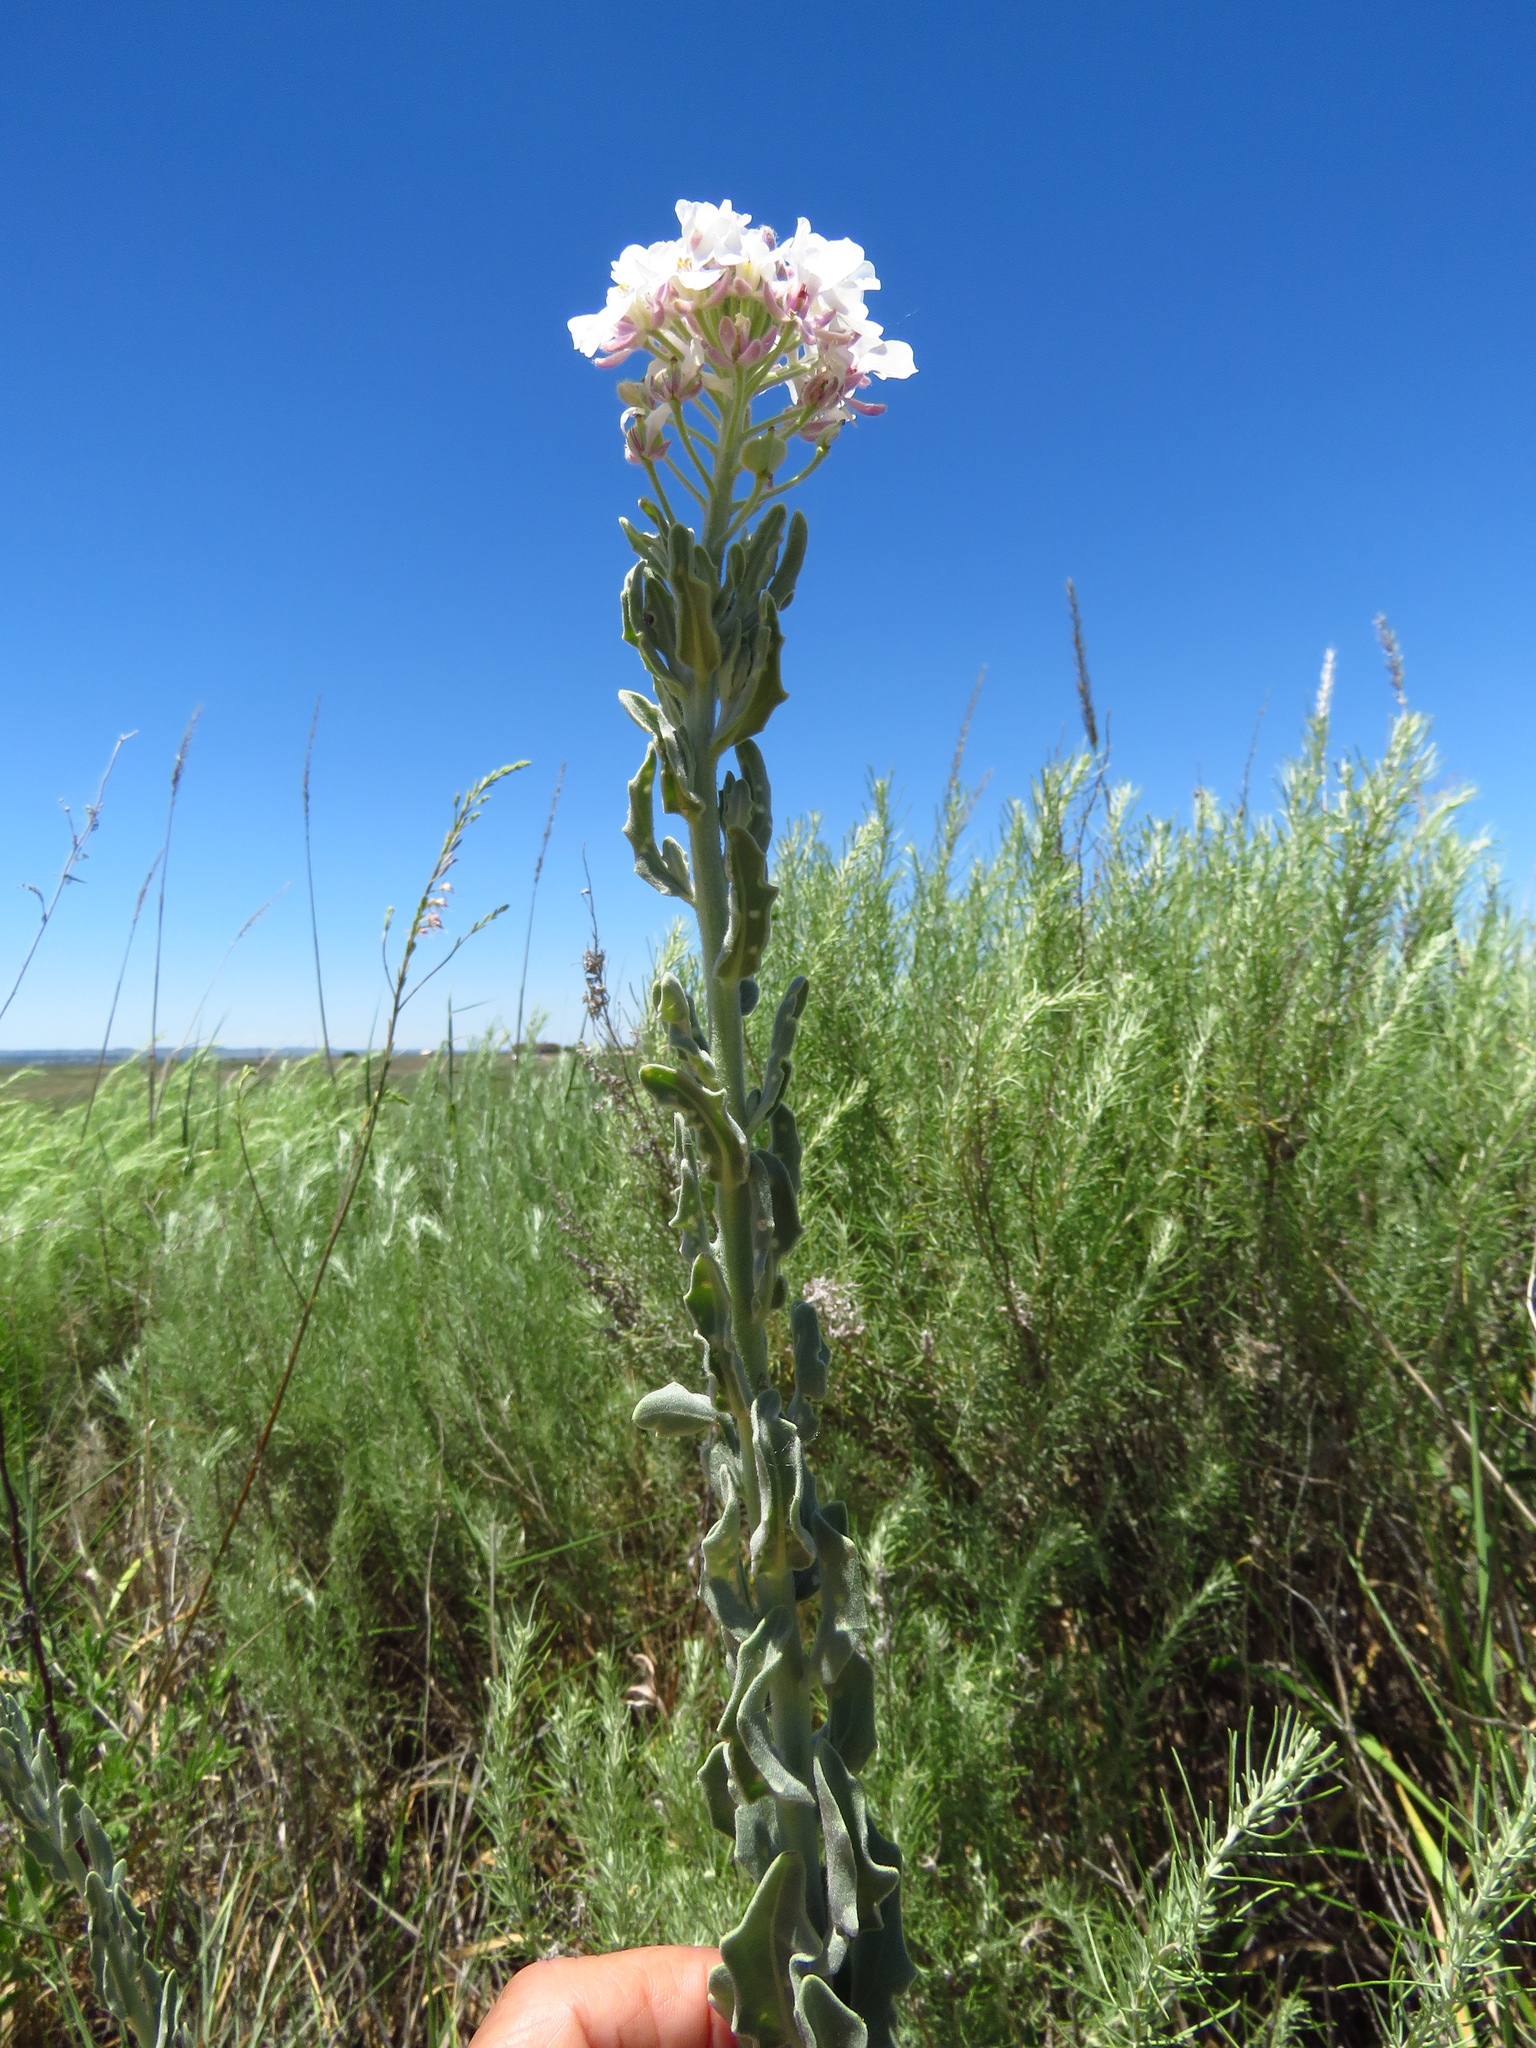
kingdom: Plantae
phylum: Tracheophyta
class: Magnoliopsida
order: Brassicales
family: Brassicaceae
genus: Dimorphocarpa
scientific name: Dimorphocarpa candicans
